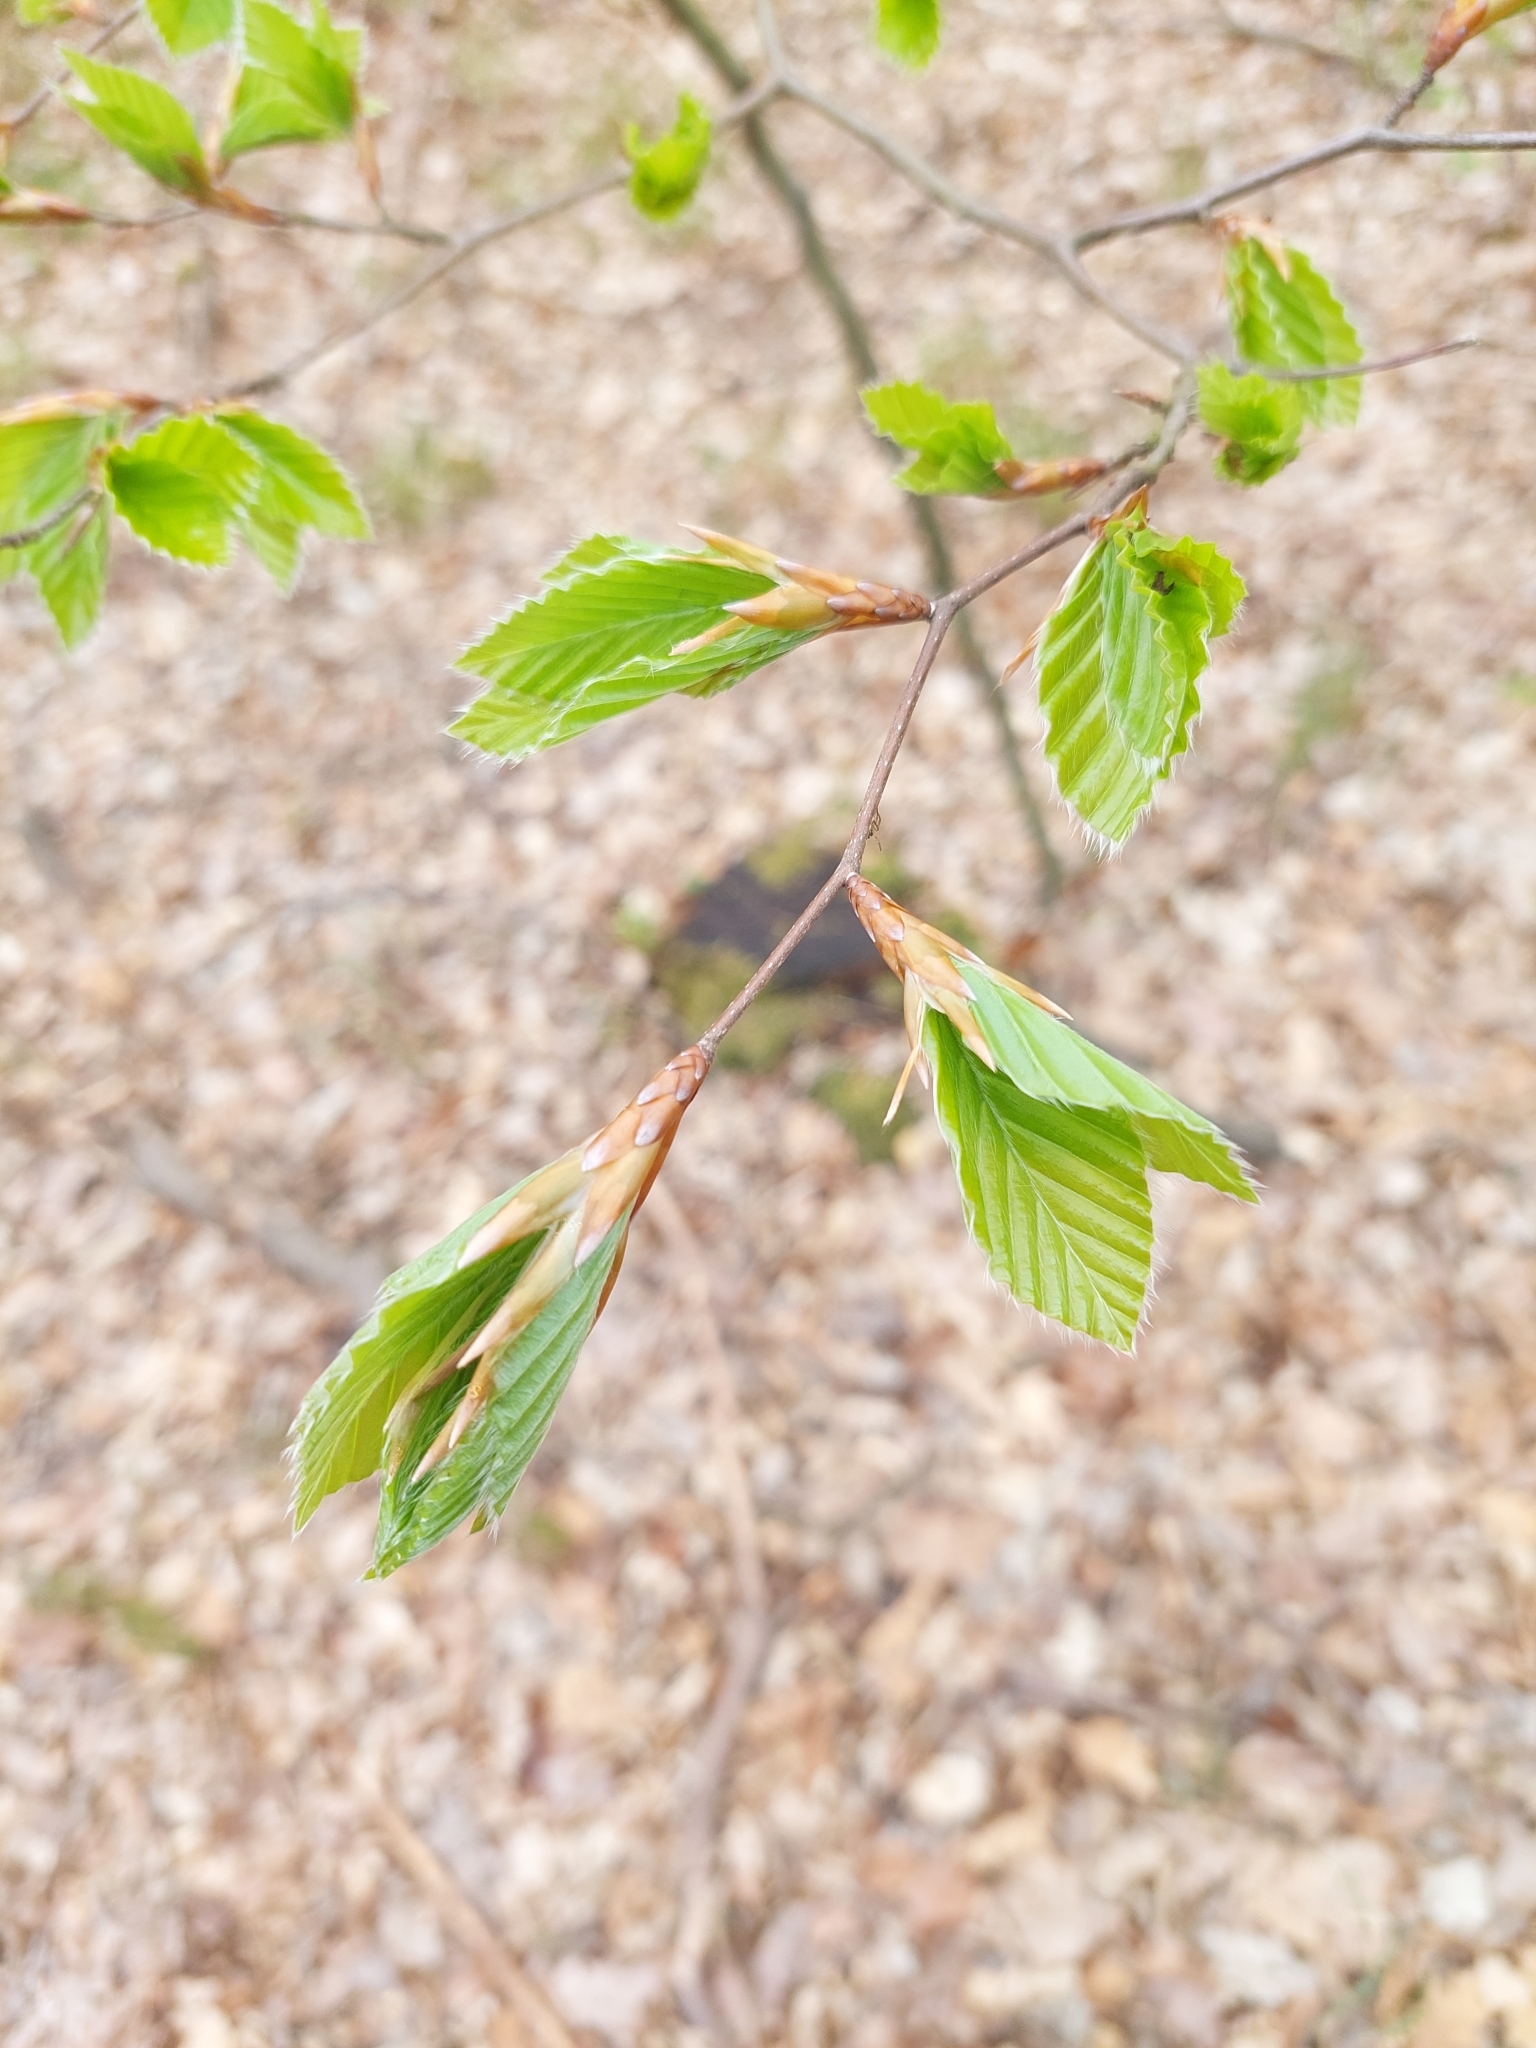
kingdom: Plantae
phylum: Tracheophyta
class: Magnoliopsida
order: Fagales
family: Fagaceae
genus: Fagus
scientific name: Fagus sylvatica
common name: Beech
